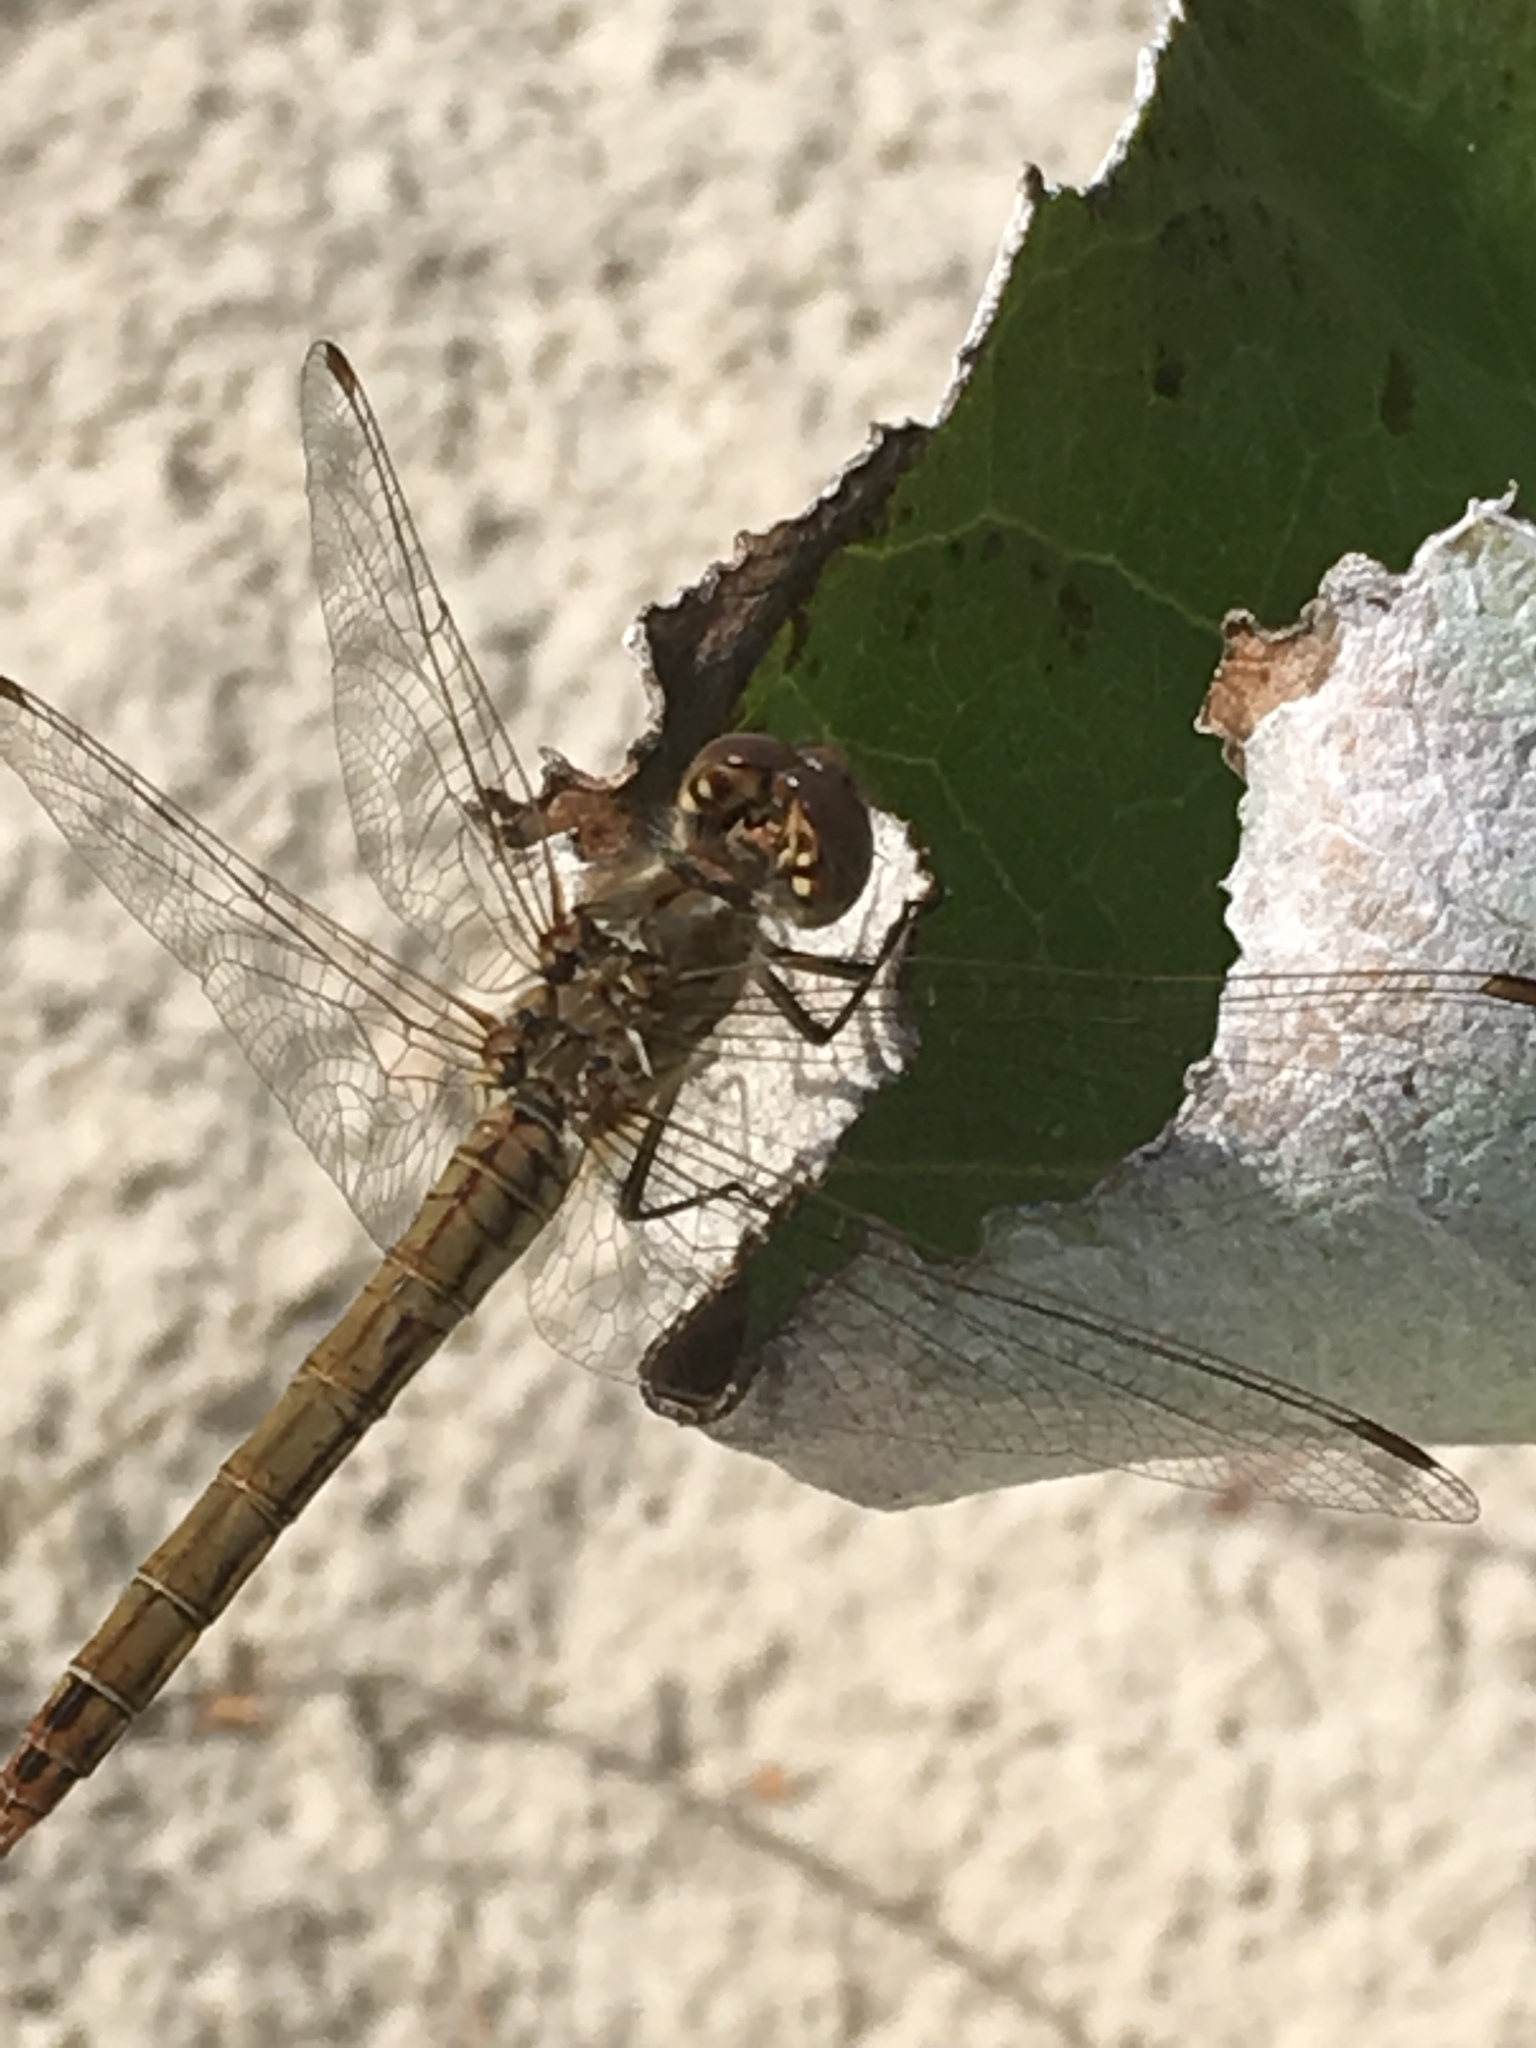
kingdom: Animalia
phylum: Arthropoda
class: Insecta
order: Odonata
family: Libellulidae
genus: Sympetrum
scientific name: Sympetrum vulgatum
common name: Vagrant darter
